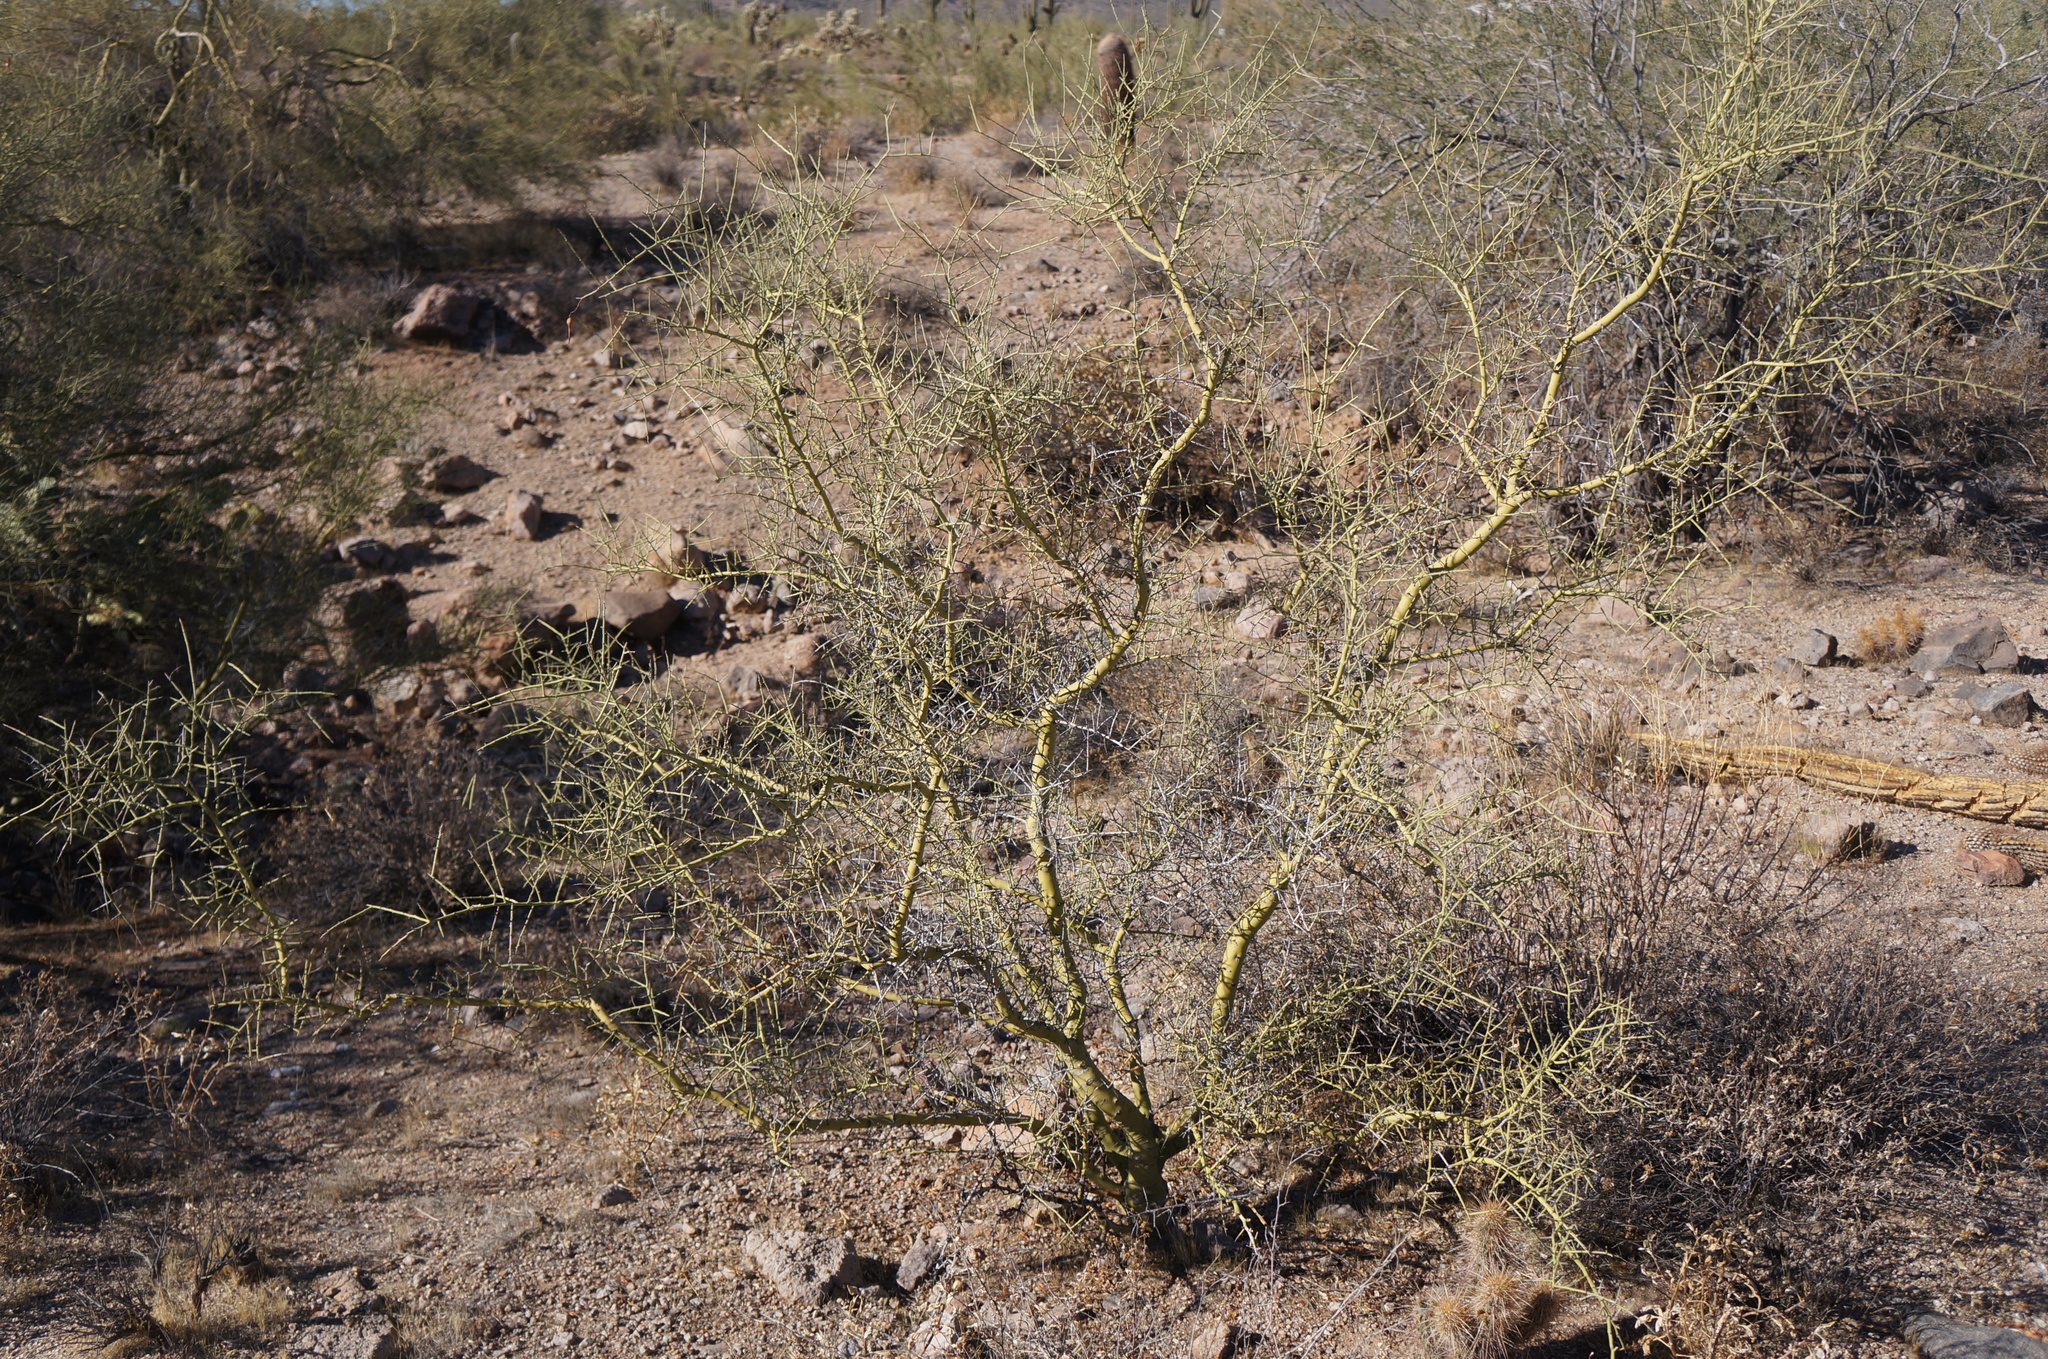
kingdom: Plantae
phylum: Tracheophyta
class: Magnoliopsida
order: Fabales
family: Fabaceae
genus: Parkinsonia
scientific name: Parkinsonia microphylla
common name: Yellow paloverde
